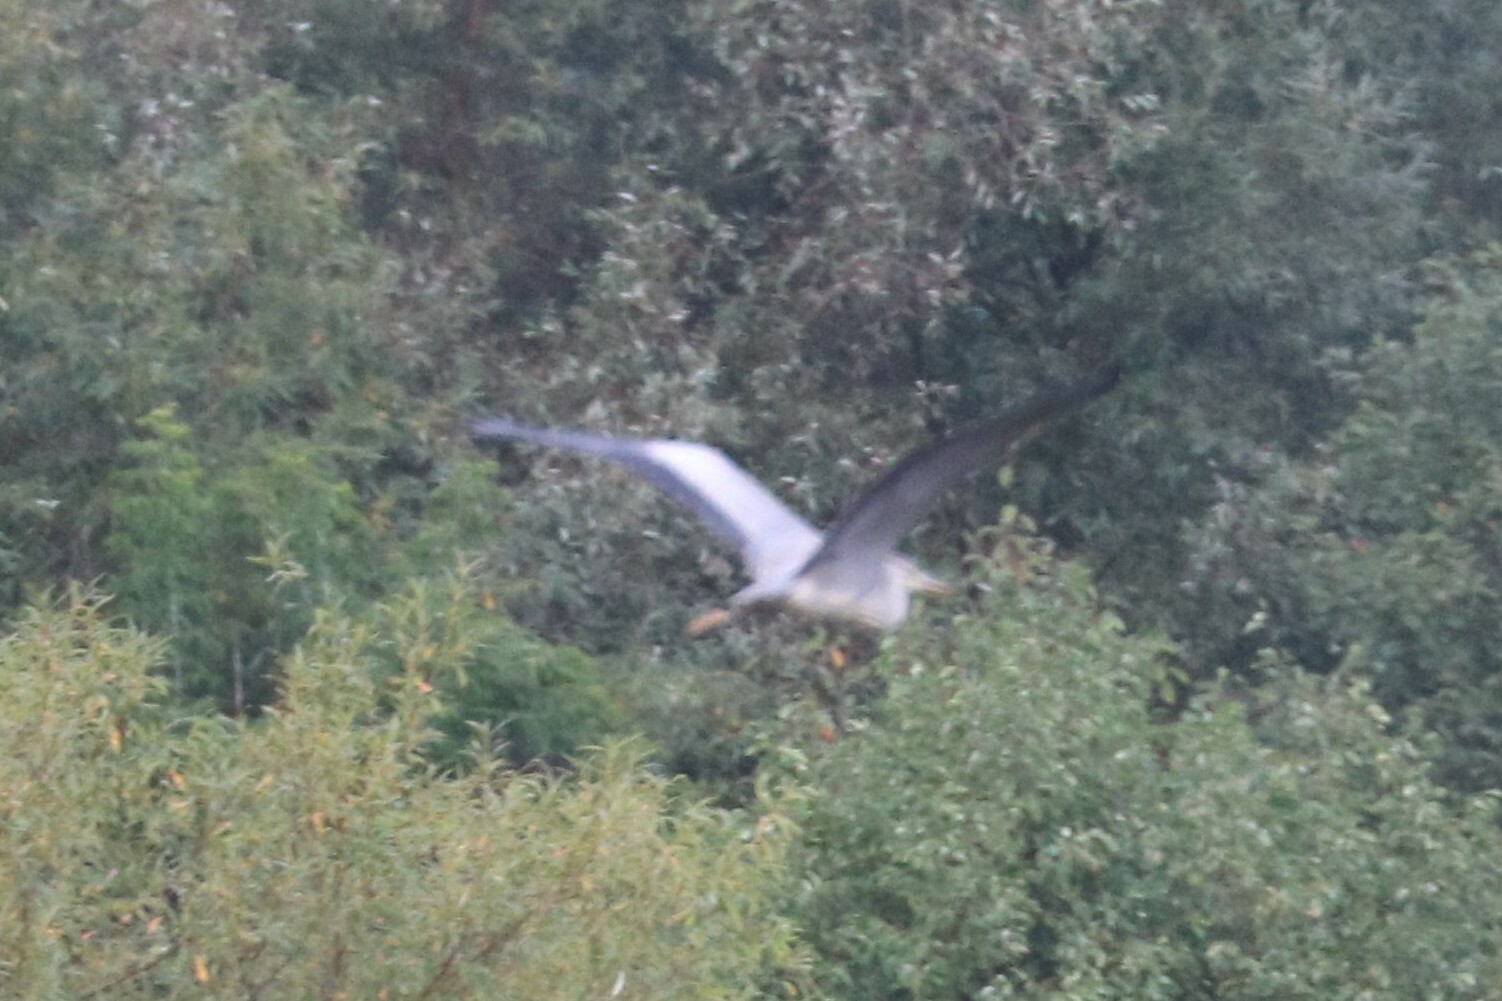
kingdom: Animalia
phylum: Chordata
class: Aves
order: Pelecaniformes
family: Ardeidae
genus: Ardea
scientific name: Ardea cinerea
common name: Grey heron
